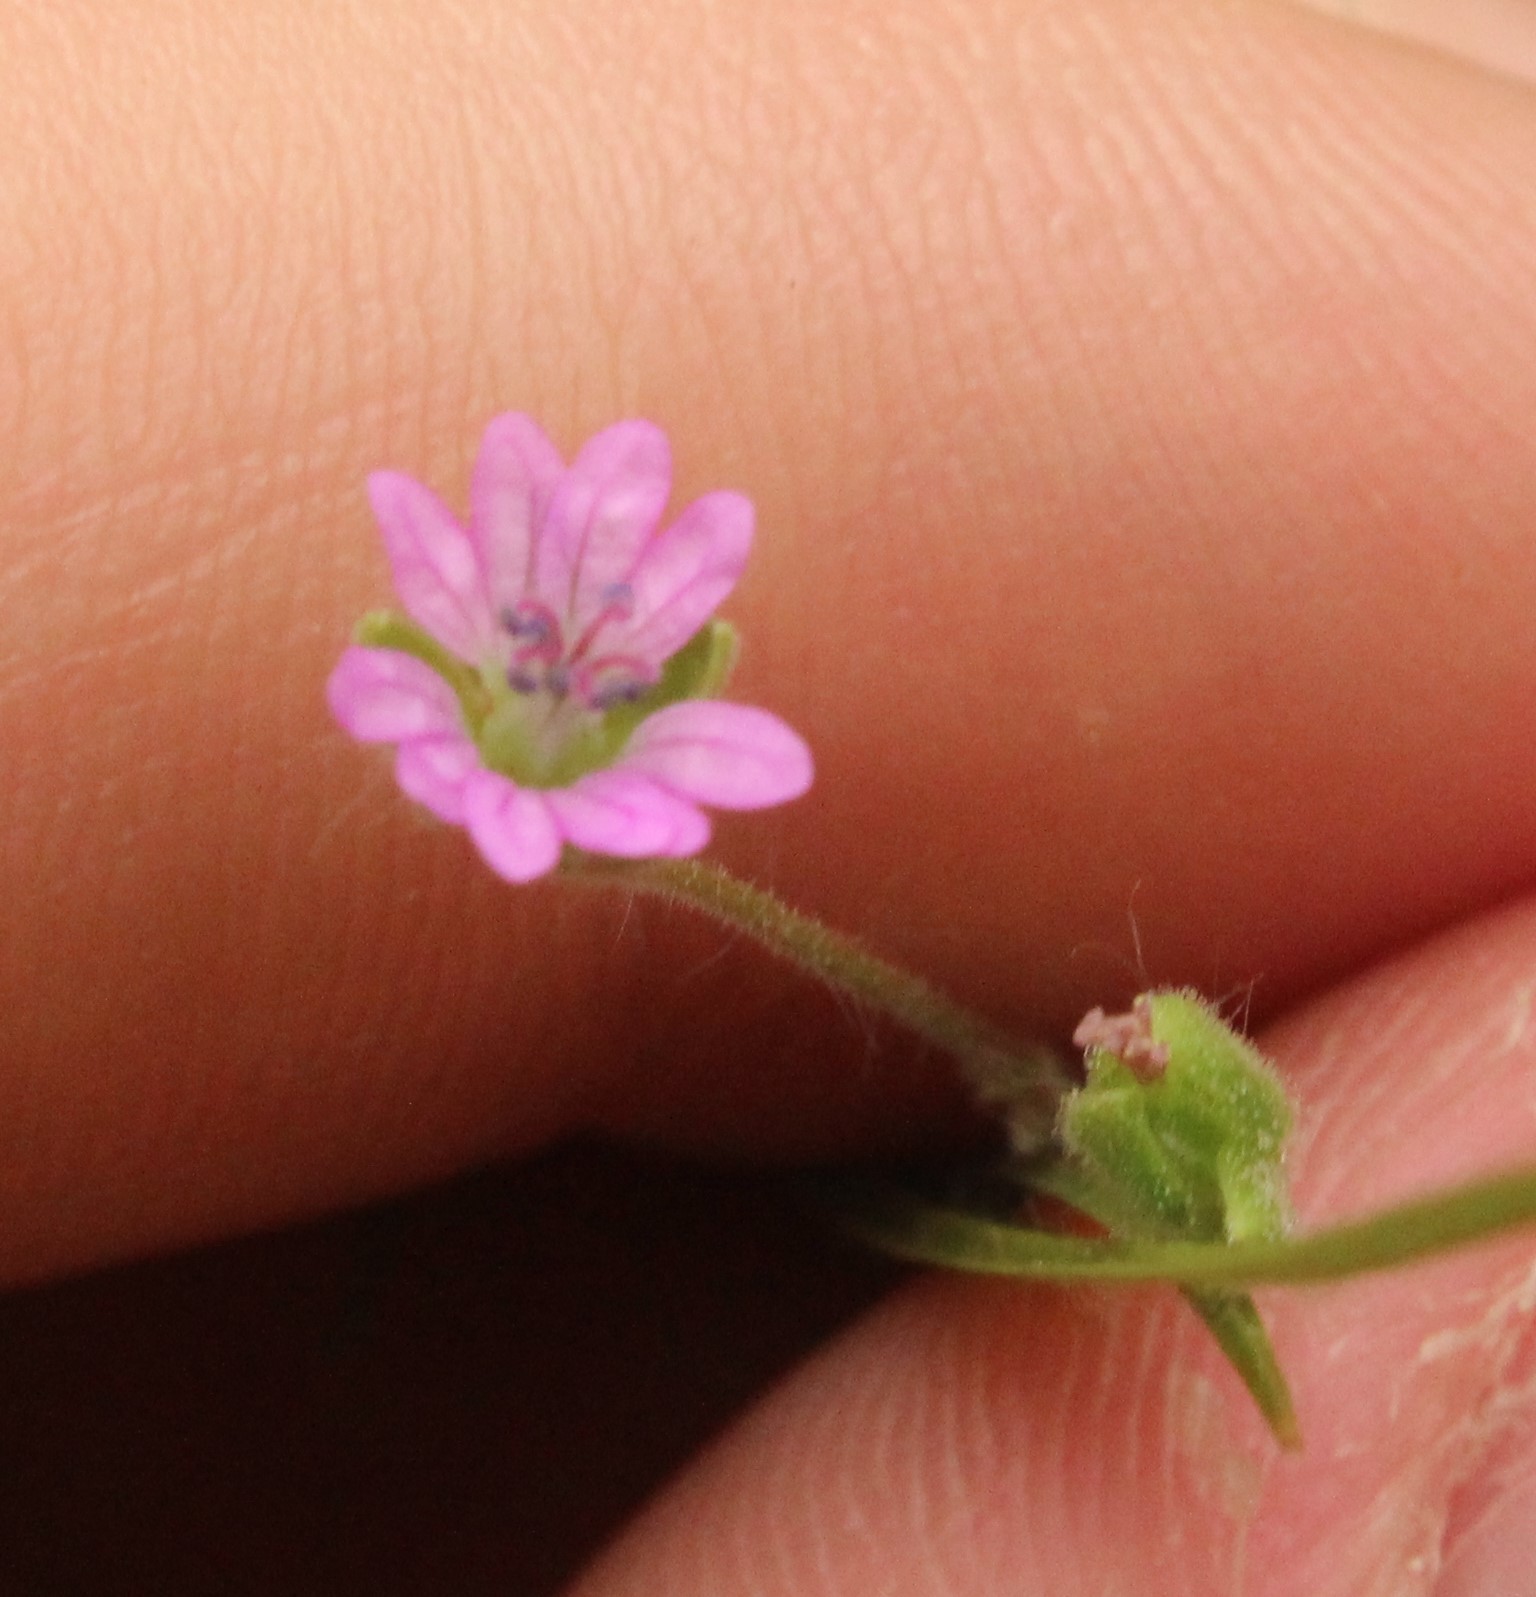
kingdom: Plantae
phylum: Tracheophyta
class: Magnoliopsida
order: Geraniales
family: Geraniaceae
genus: Geranium
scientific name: Geranium molle
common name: Dove's-foot crane's-bill
